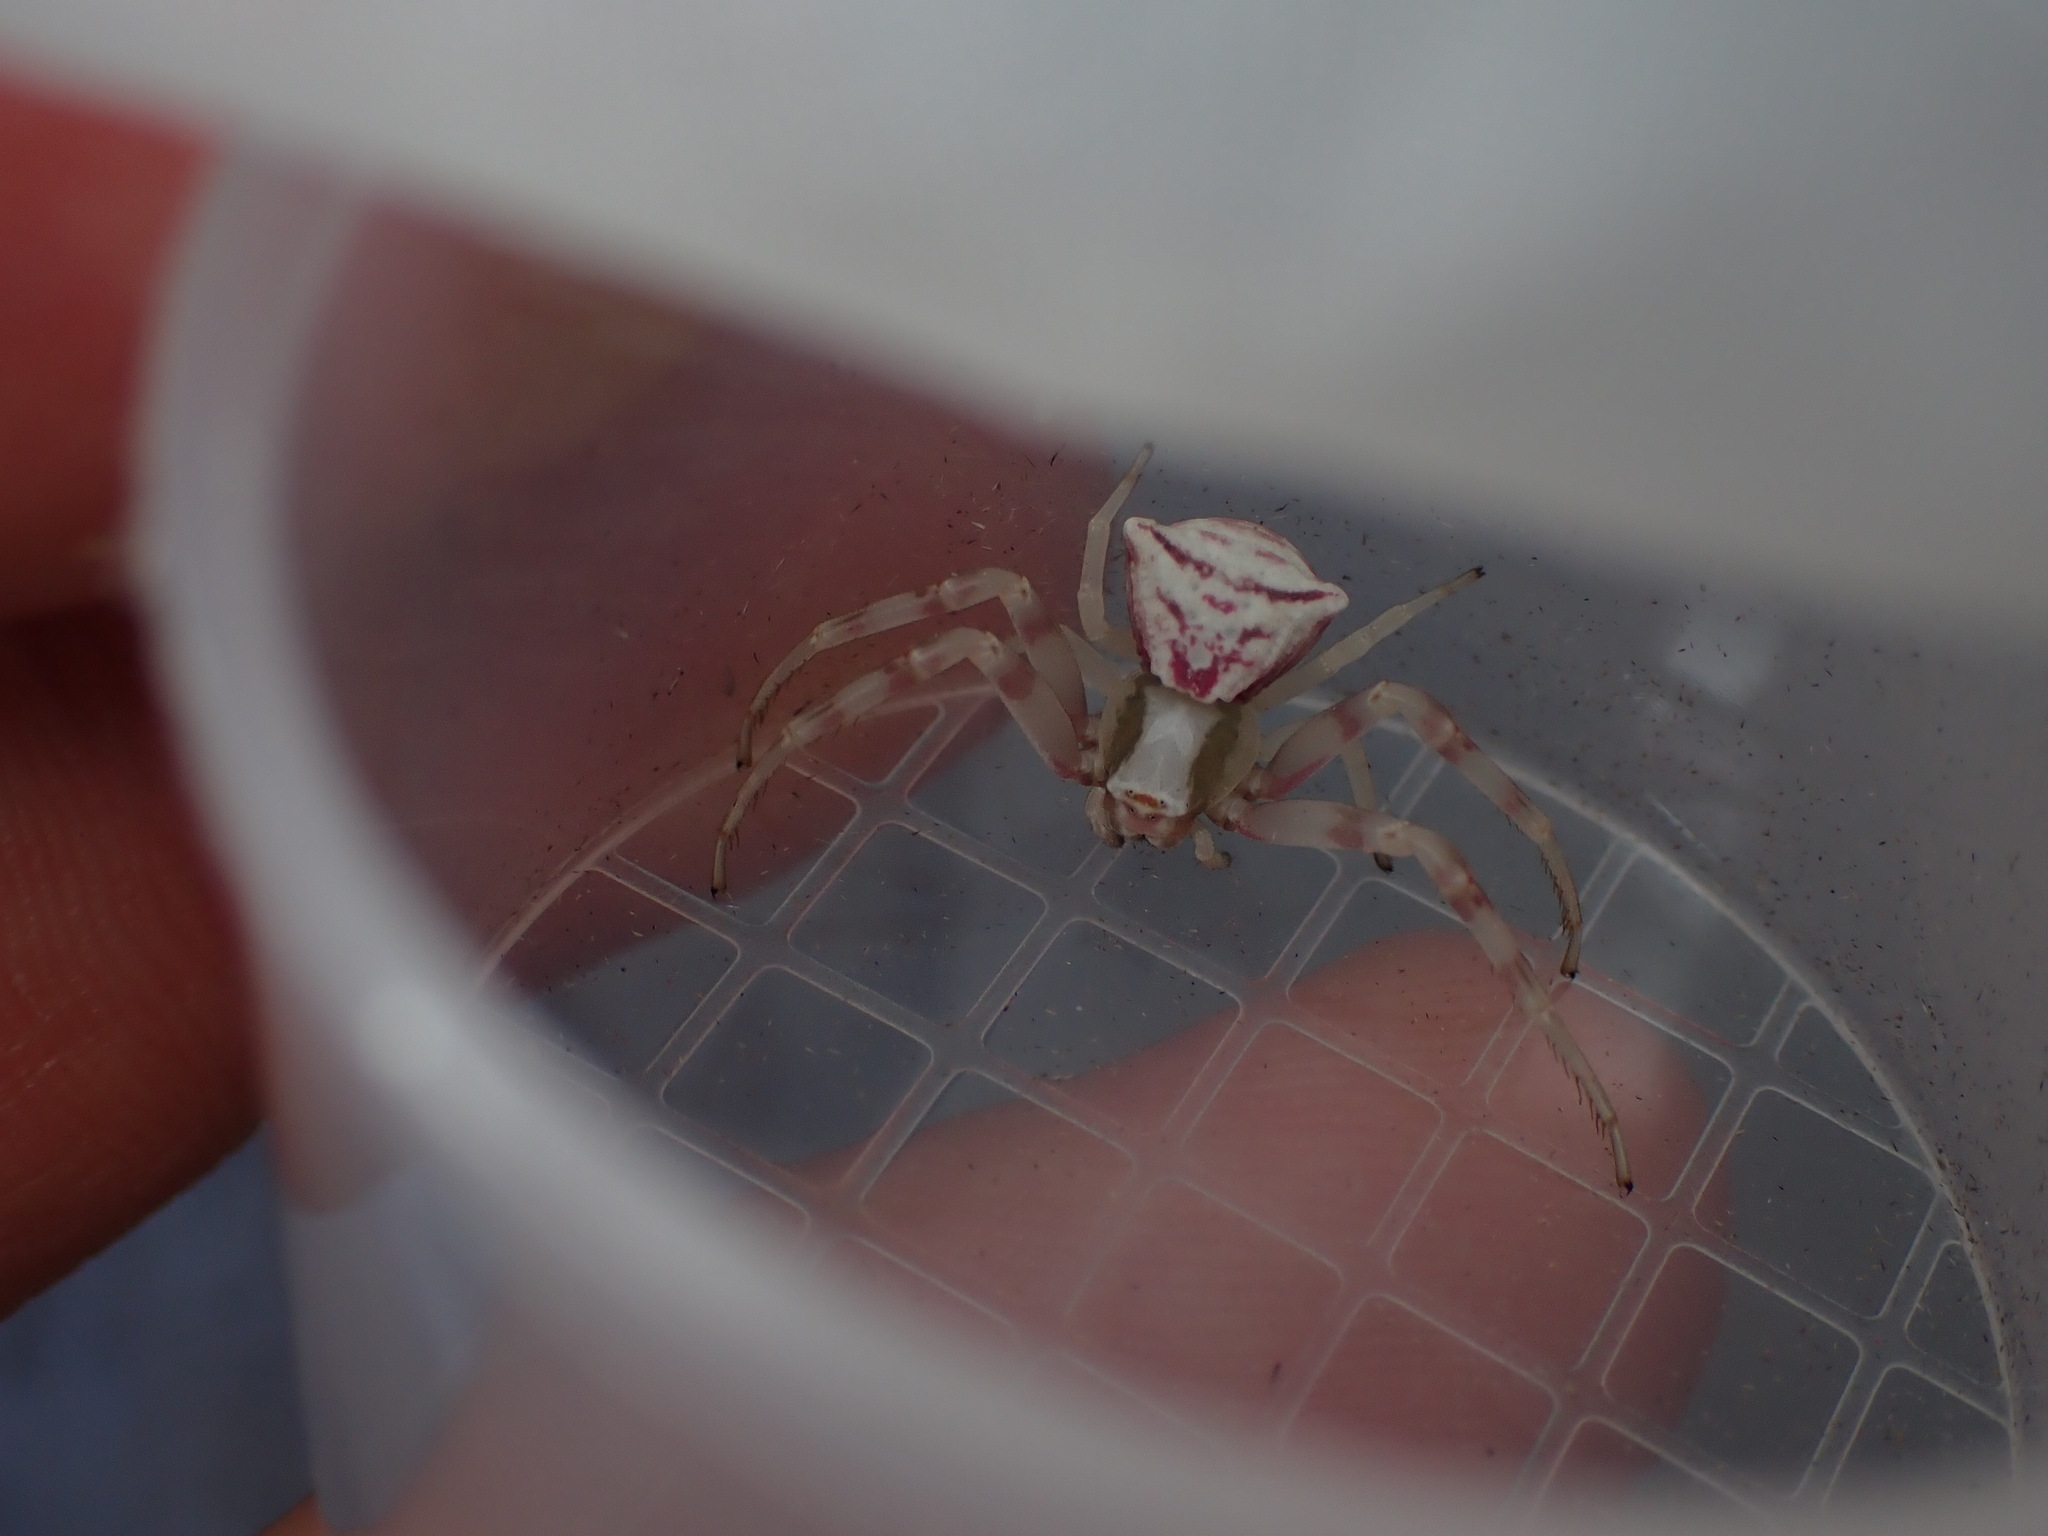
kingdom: Animalia
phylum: Arthropoda
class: Arachnida
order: Araneae
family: Thomisidae
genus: Thomisus
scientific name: Thomisus onustus
